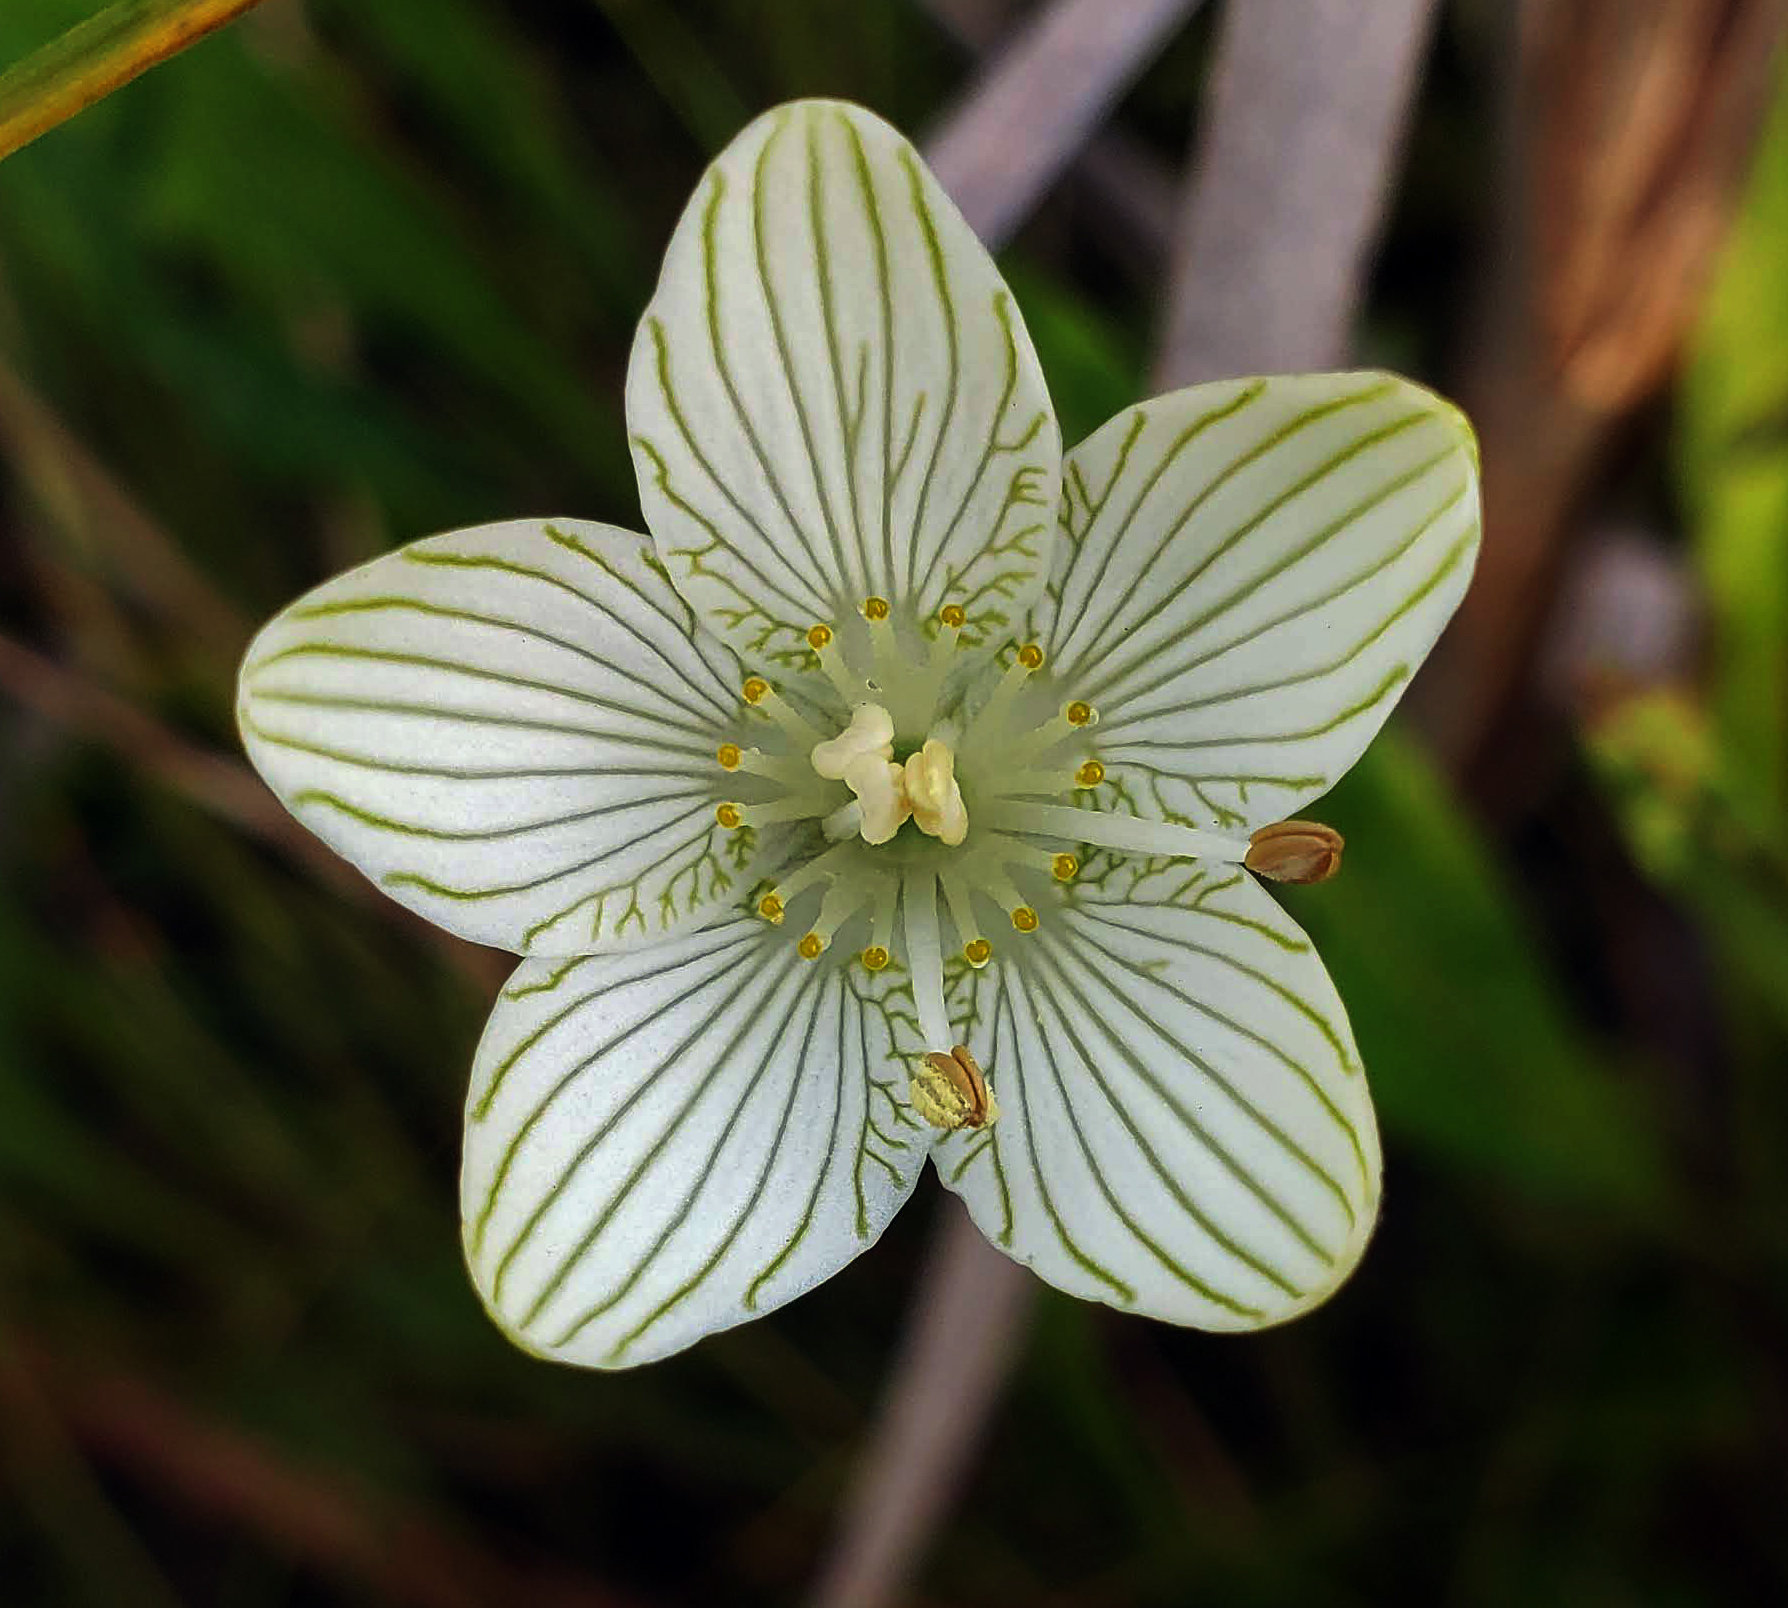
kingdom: Plantae
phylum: Tracheophyta
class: Magnoliopsida
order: Celastrales
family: Parnassiaceae
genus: Parnassia
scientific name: Parnassia glauca
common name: American grass-of-parnassus
